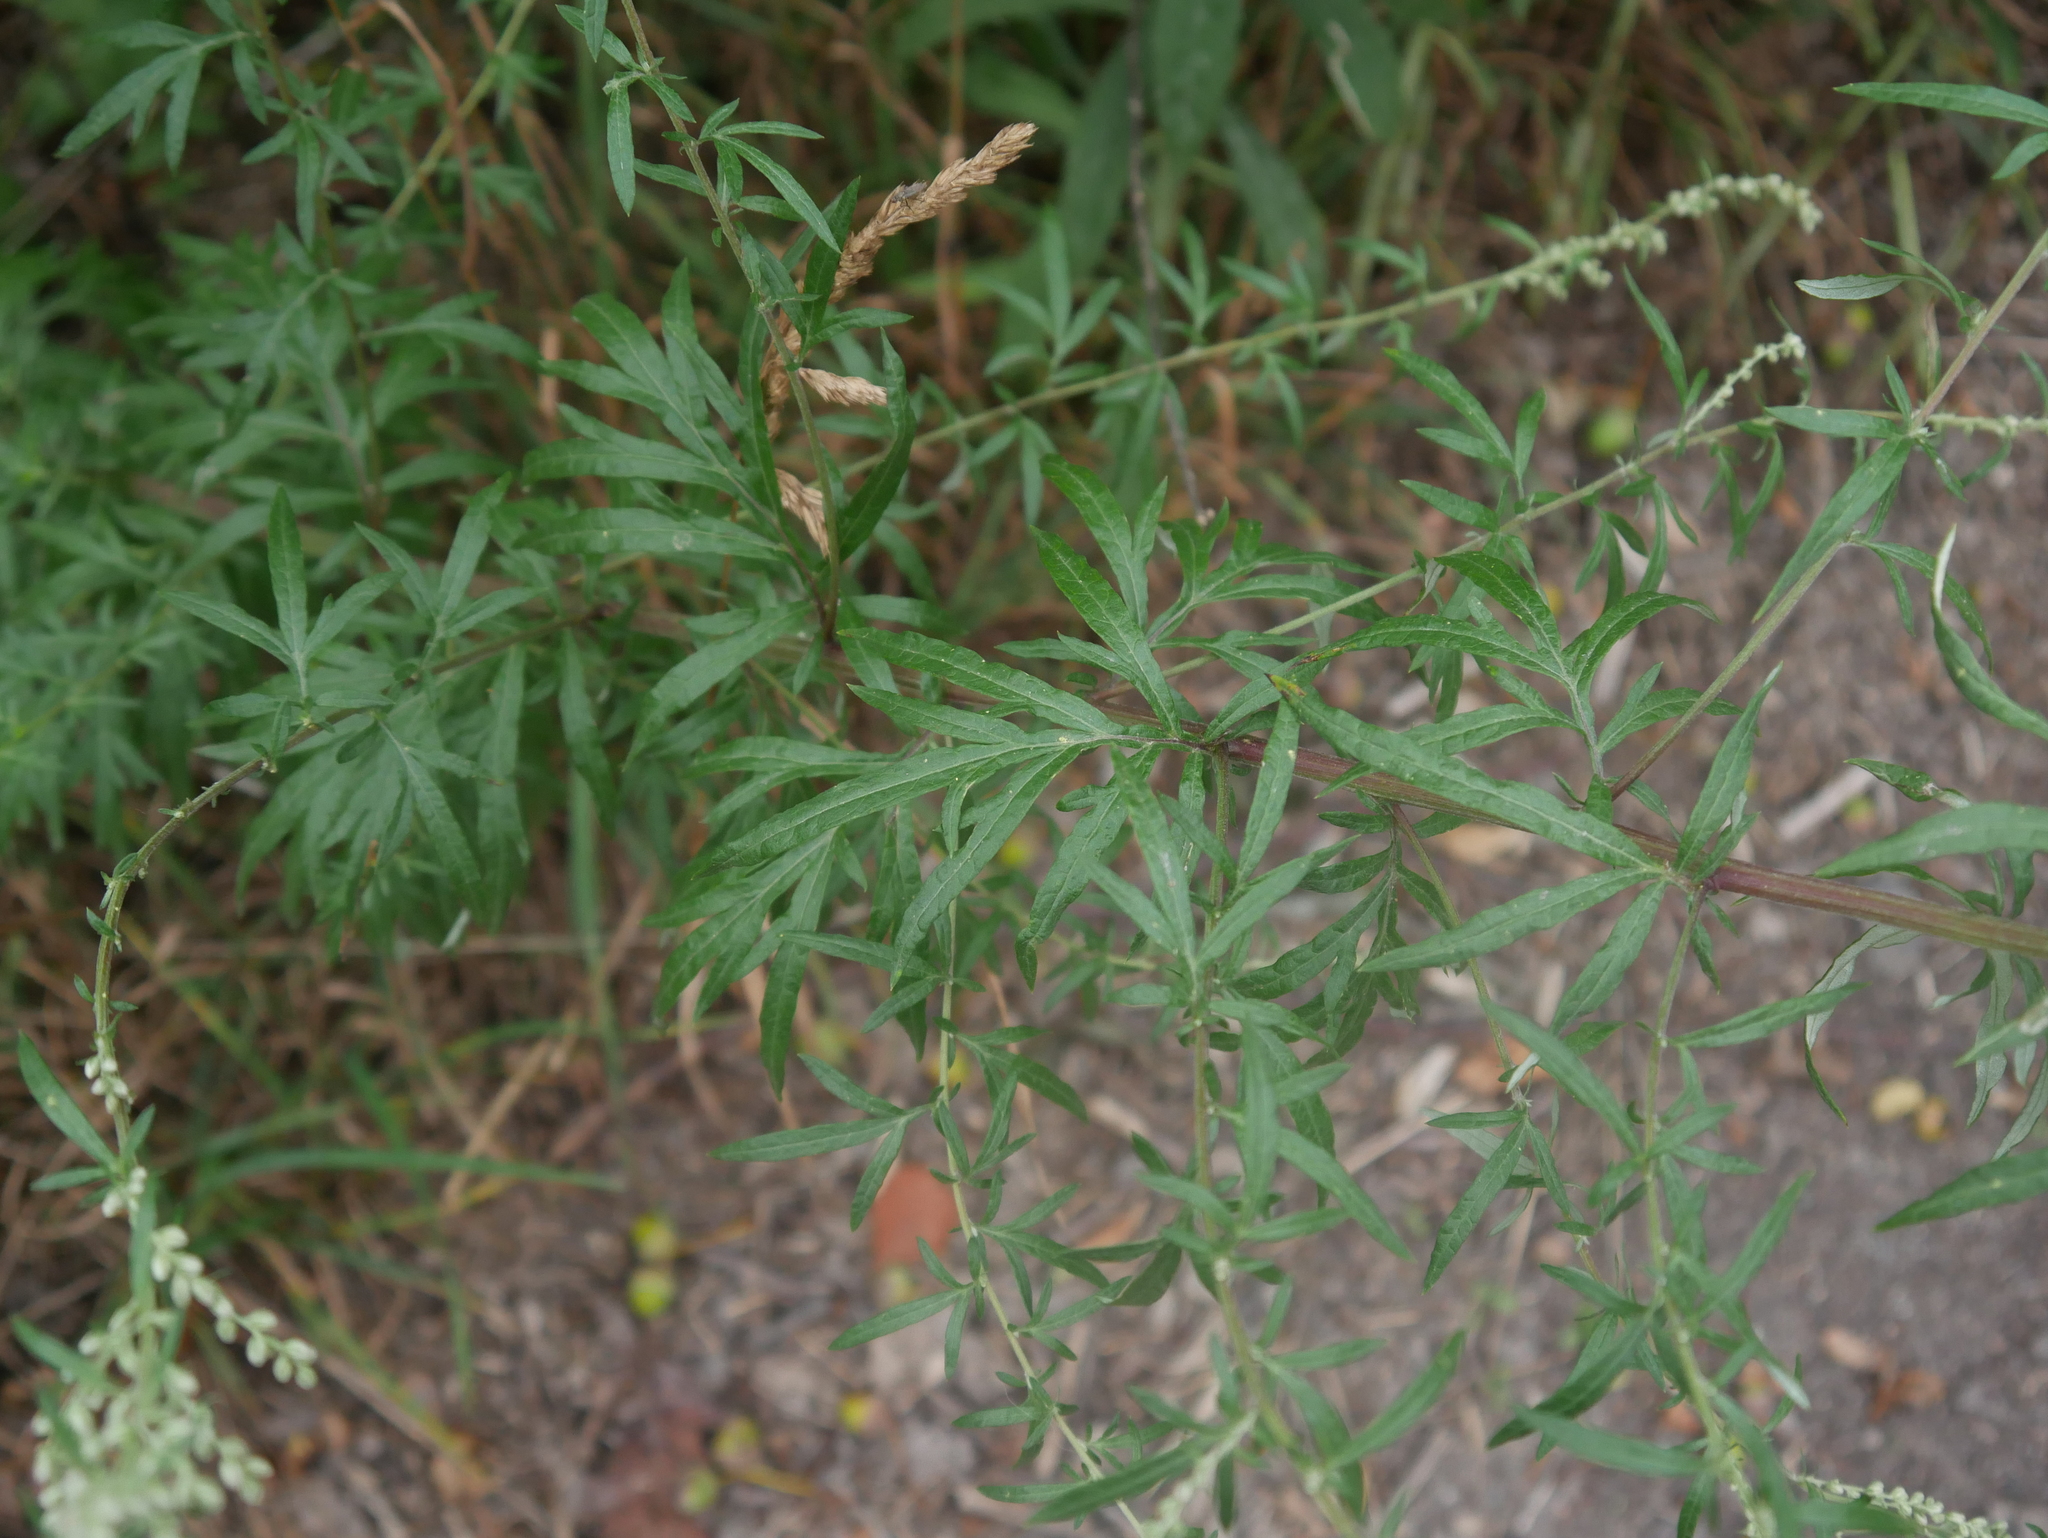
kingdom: Plantae
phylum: Tracheophyta
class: Magnoliopsida
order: Asterales
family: Asteraceae
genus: Artemisia
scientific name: Artemisia vulgaris
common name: Mugwort
